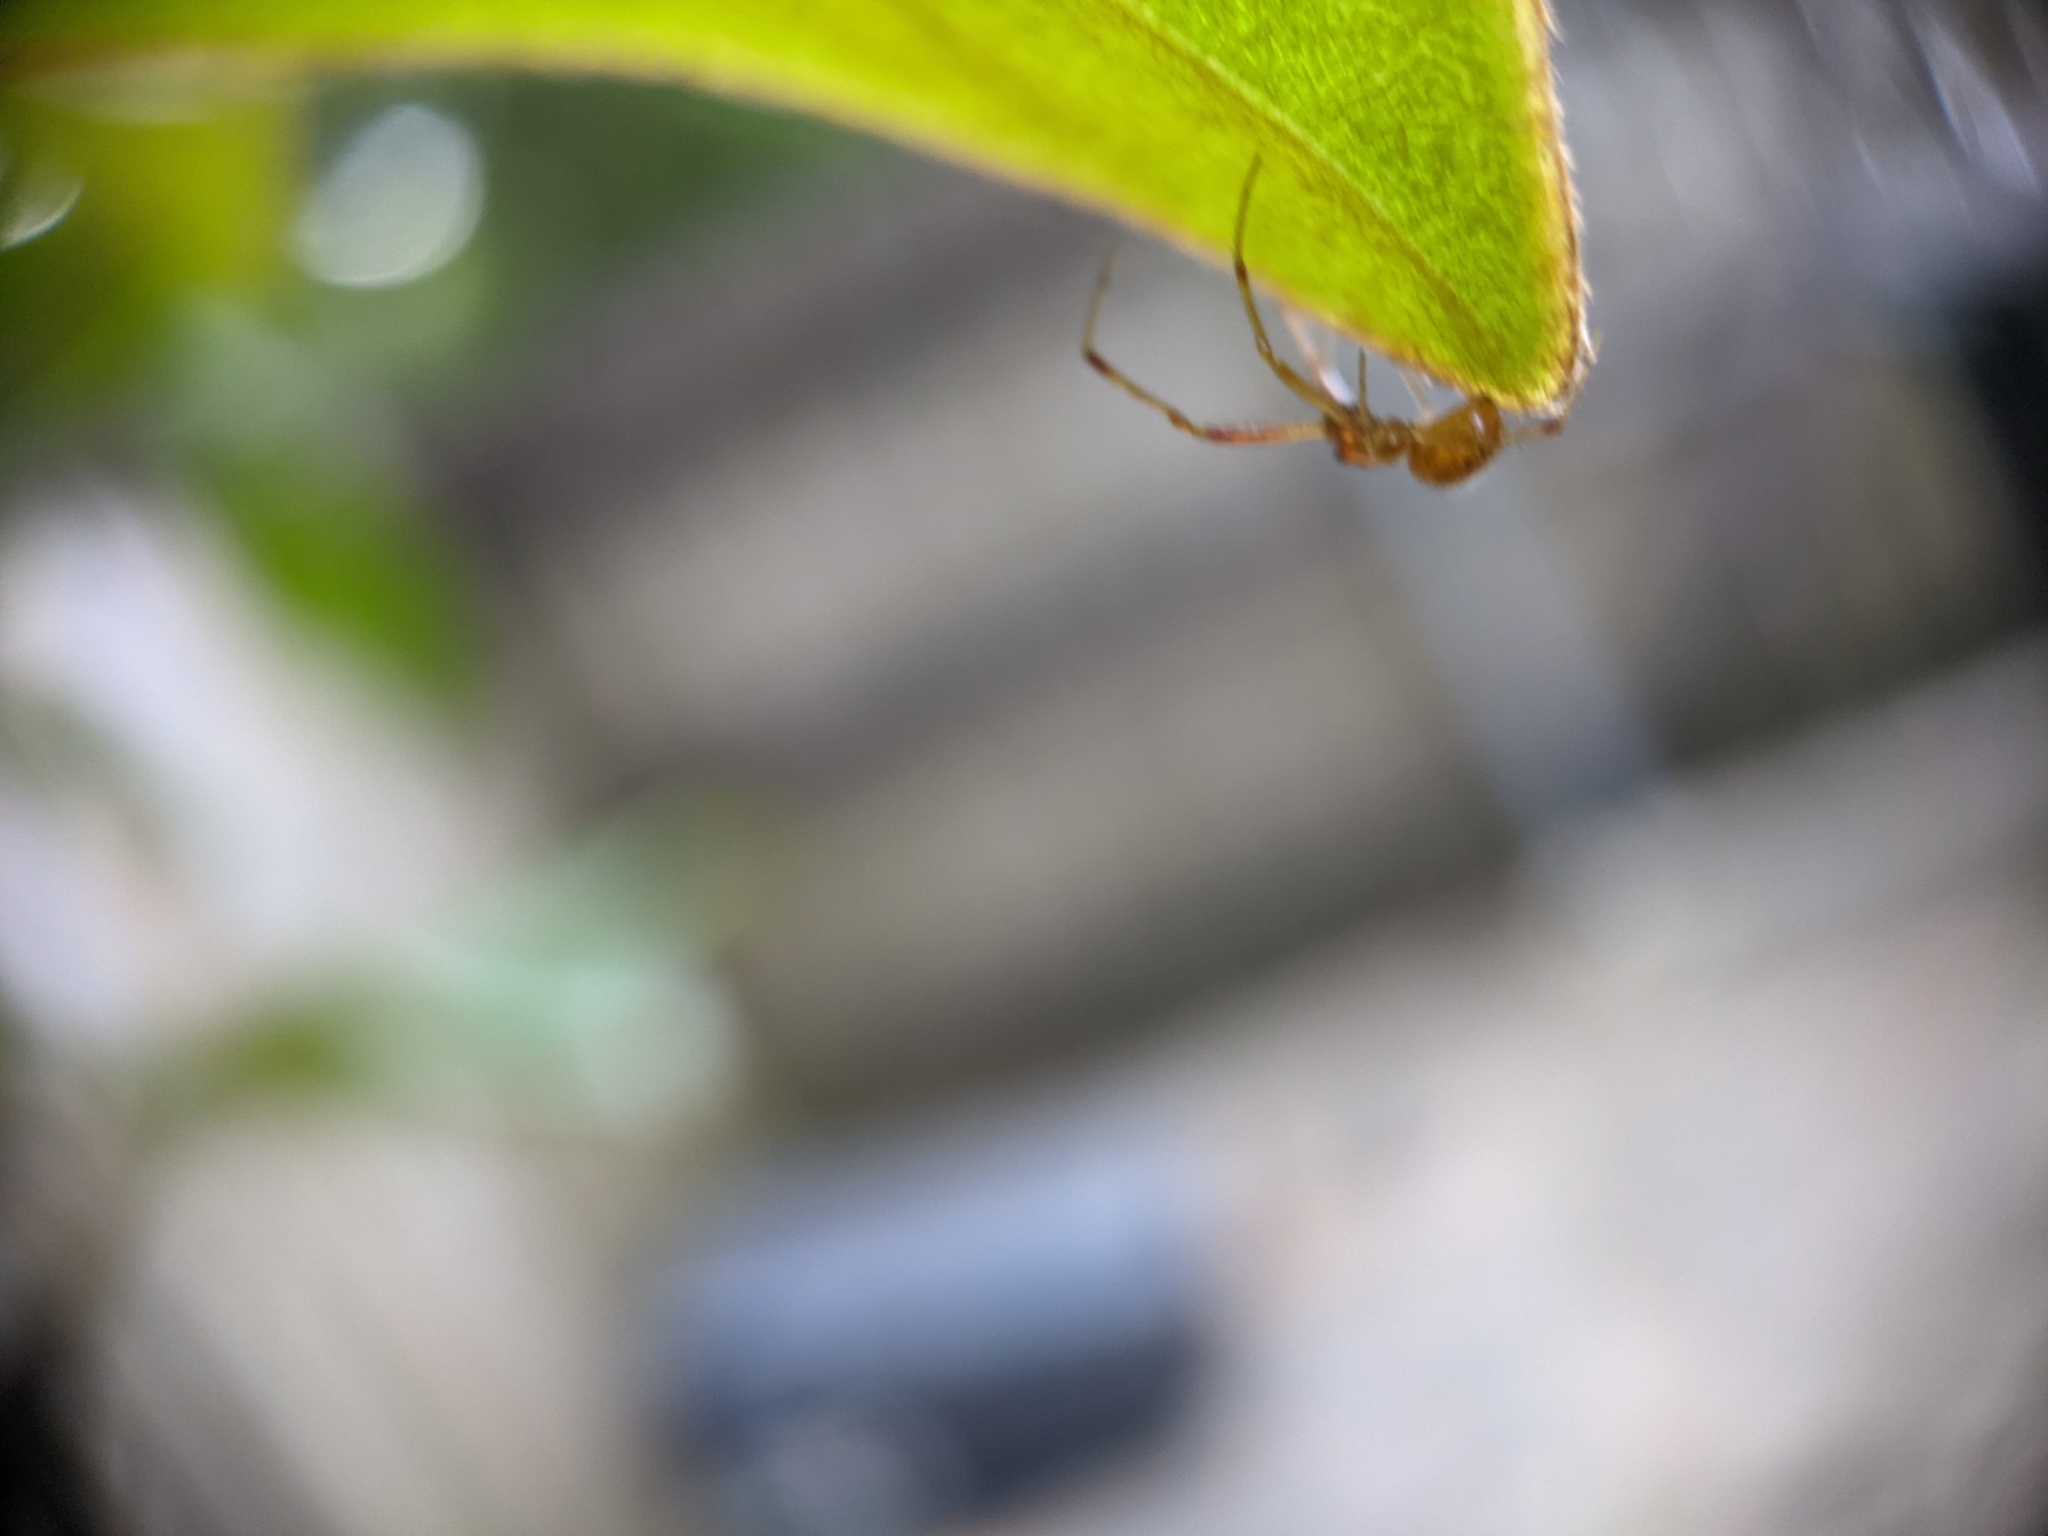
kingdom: Animalia
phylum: Arthropoda
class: Arachnida
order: Araneae
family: Theridiidae
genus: Anelosimus
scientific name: Anelosimus studiosus
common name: Cobweb spiders
